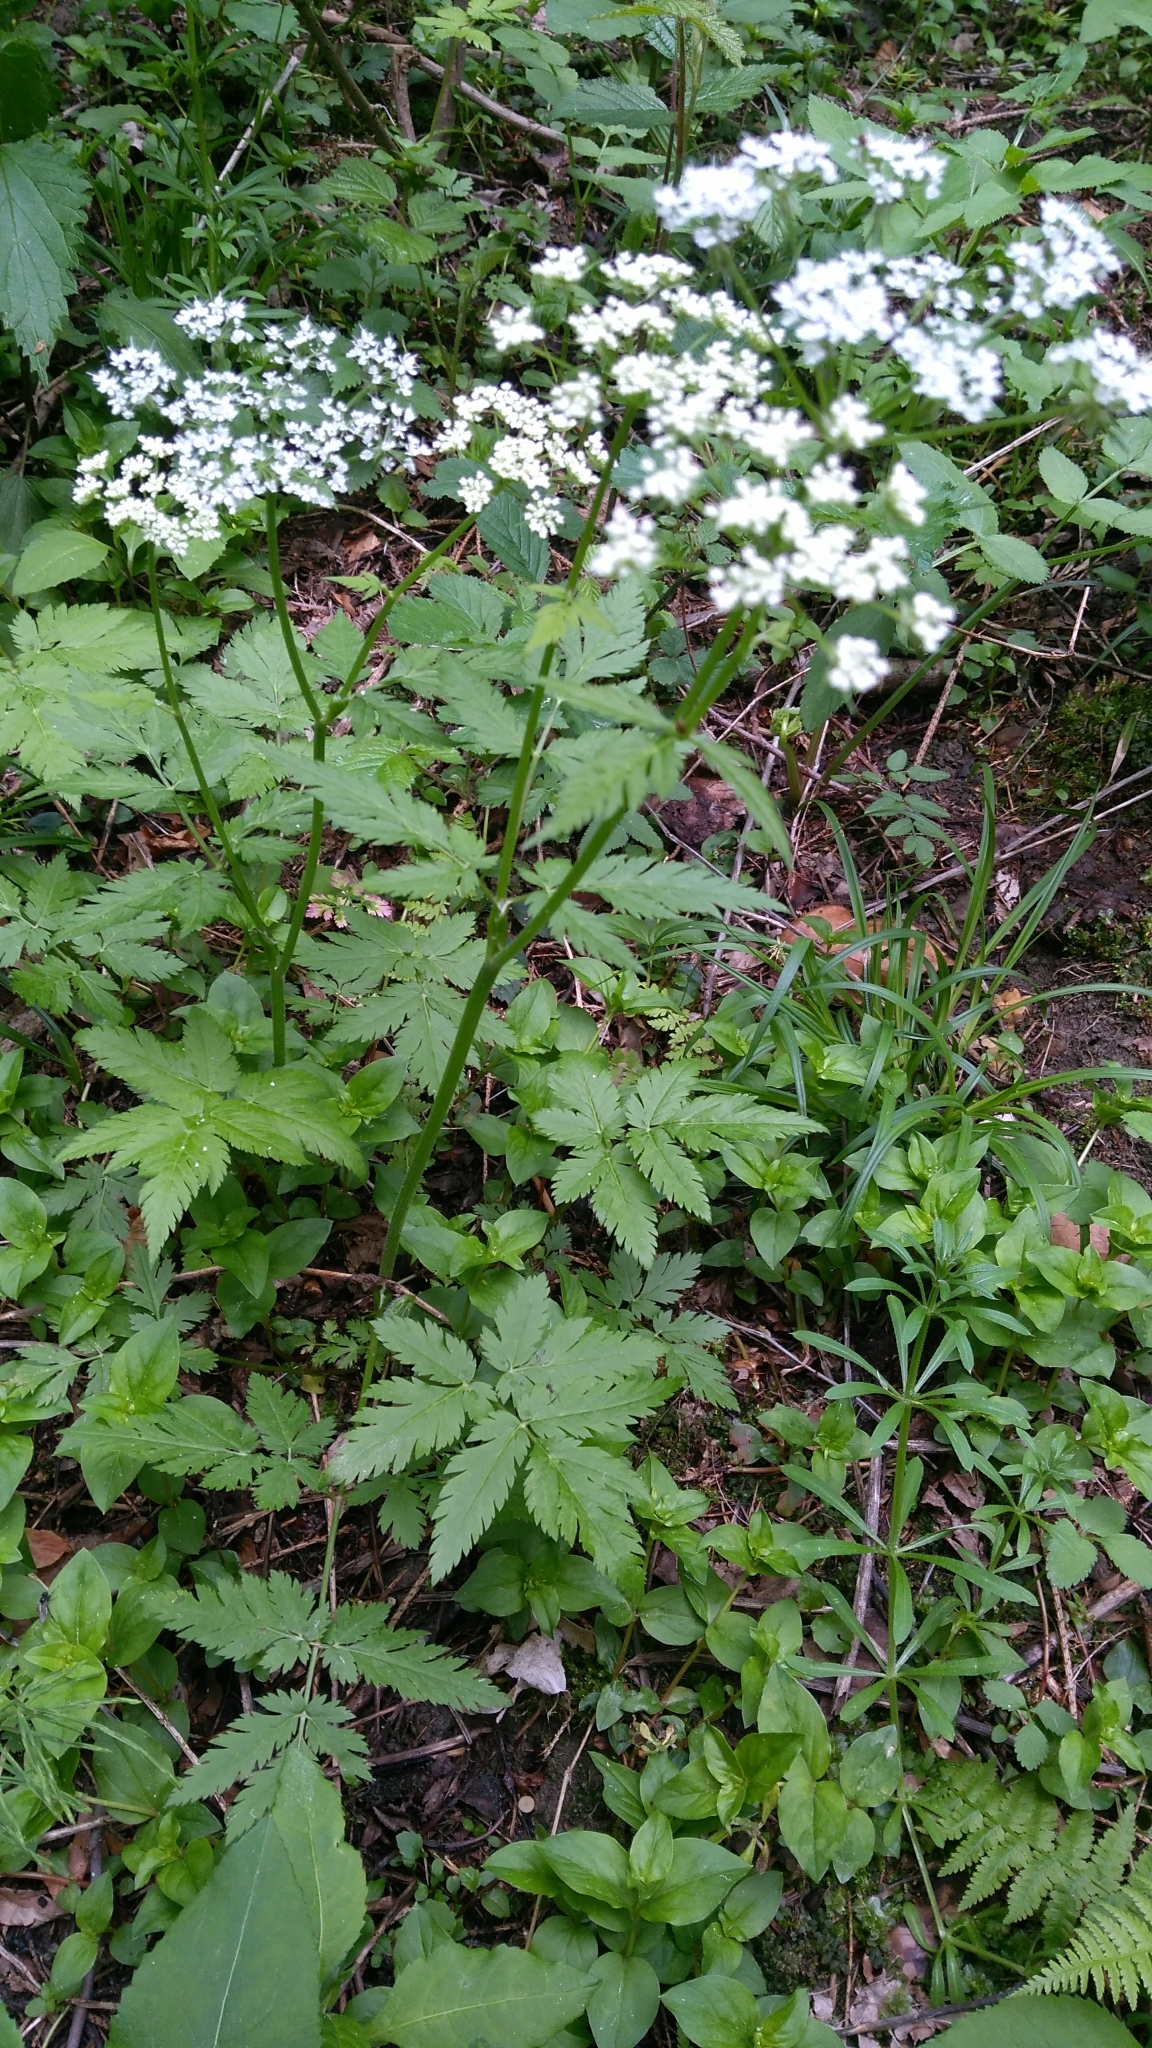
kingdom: Plantae
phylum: Tracheophyta
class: Magnoliopsida
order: Apiales
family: Apiaceae
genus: Chaerophyllum
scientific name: Chaerophyllum temulum
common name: Rough chervil
